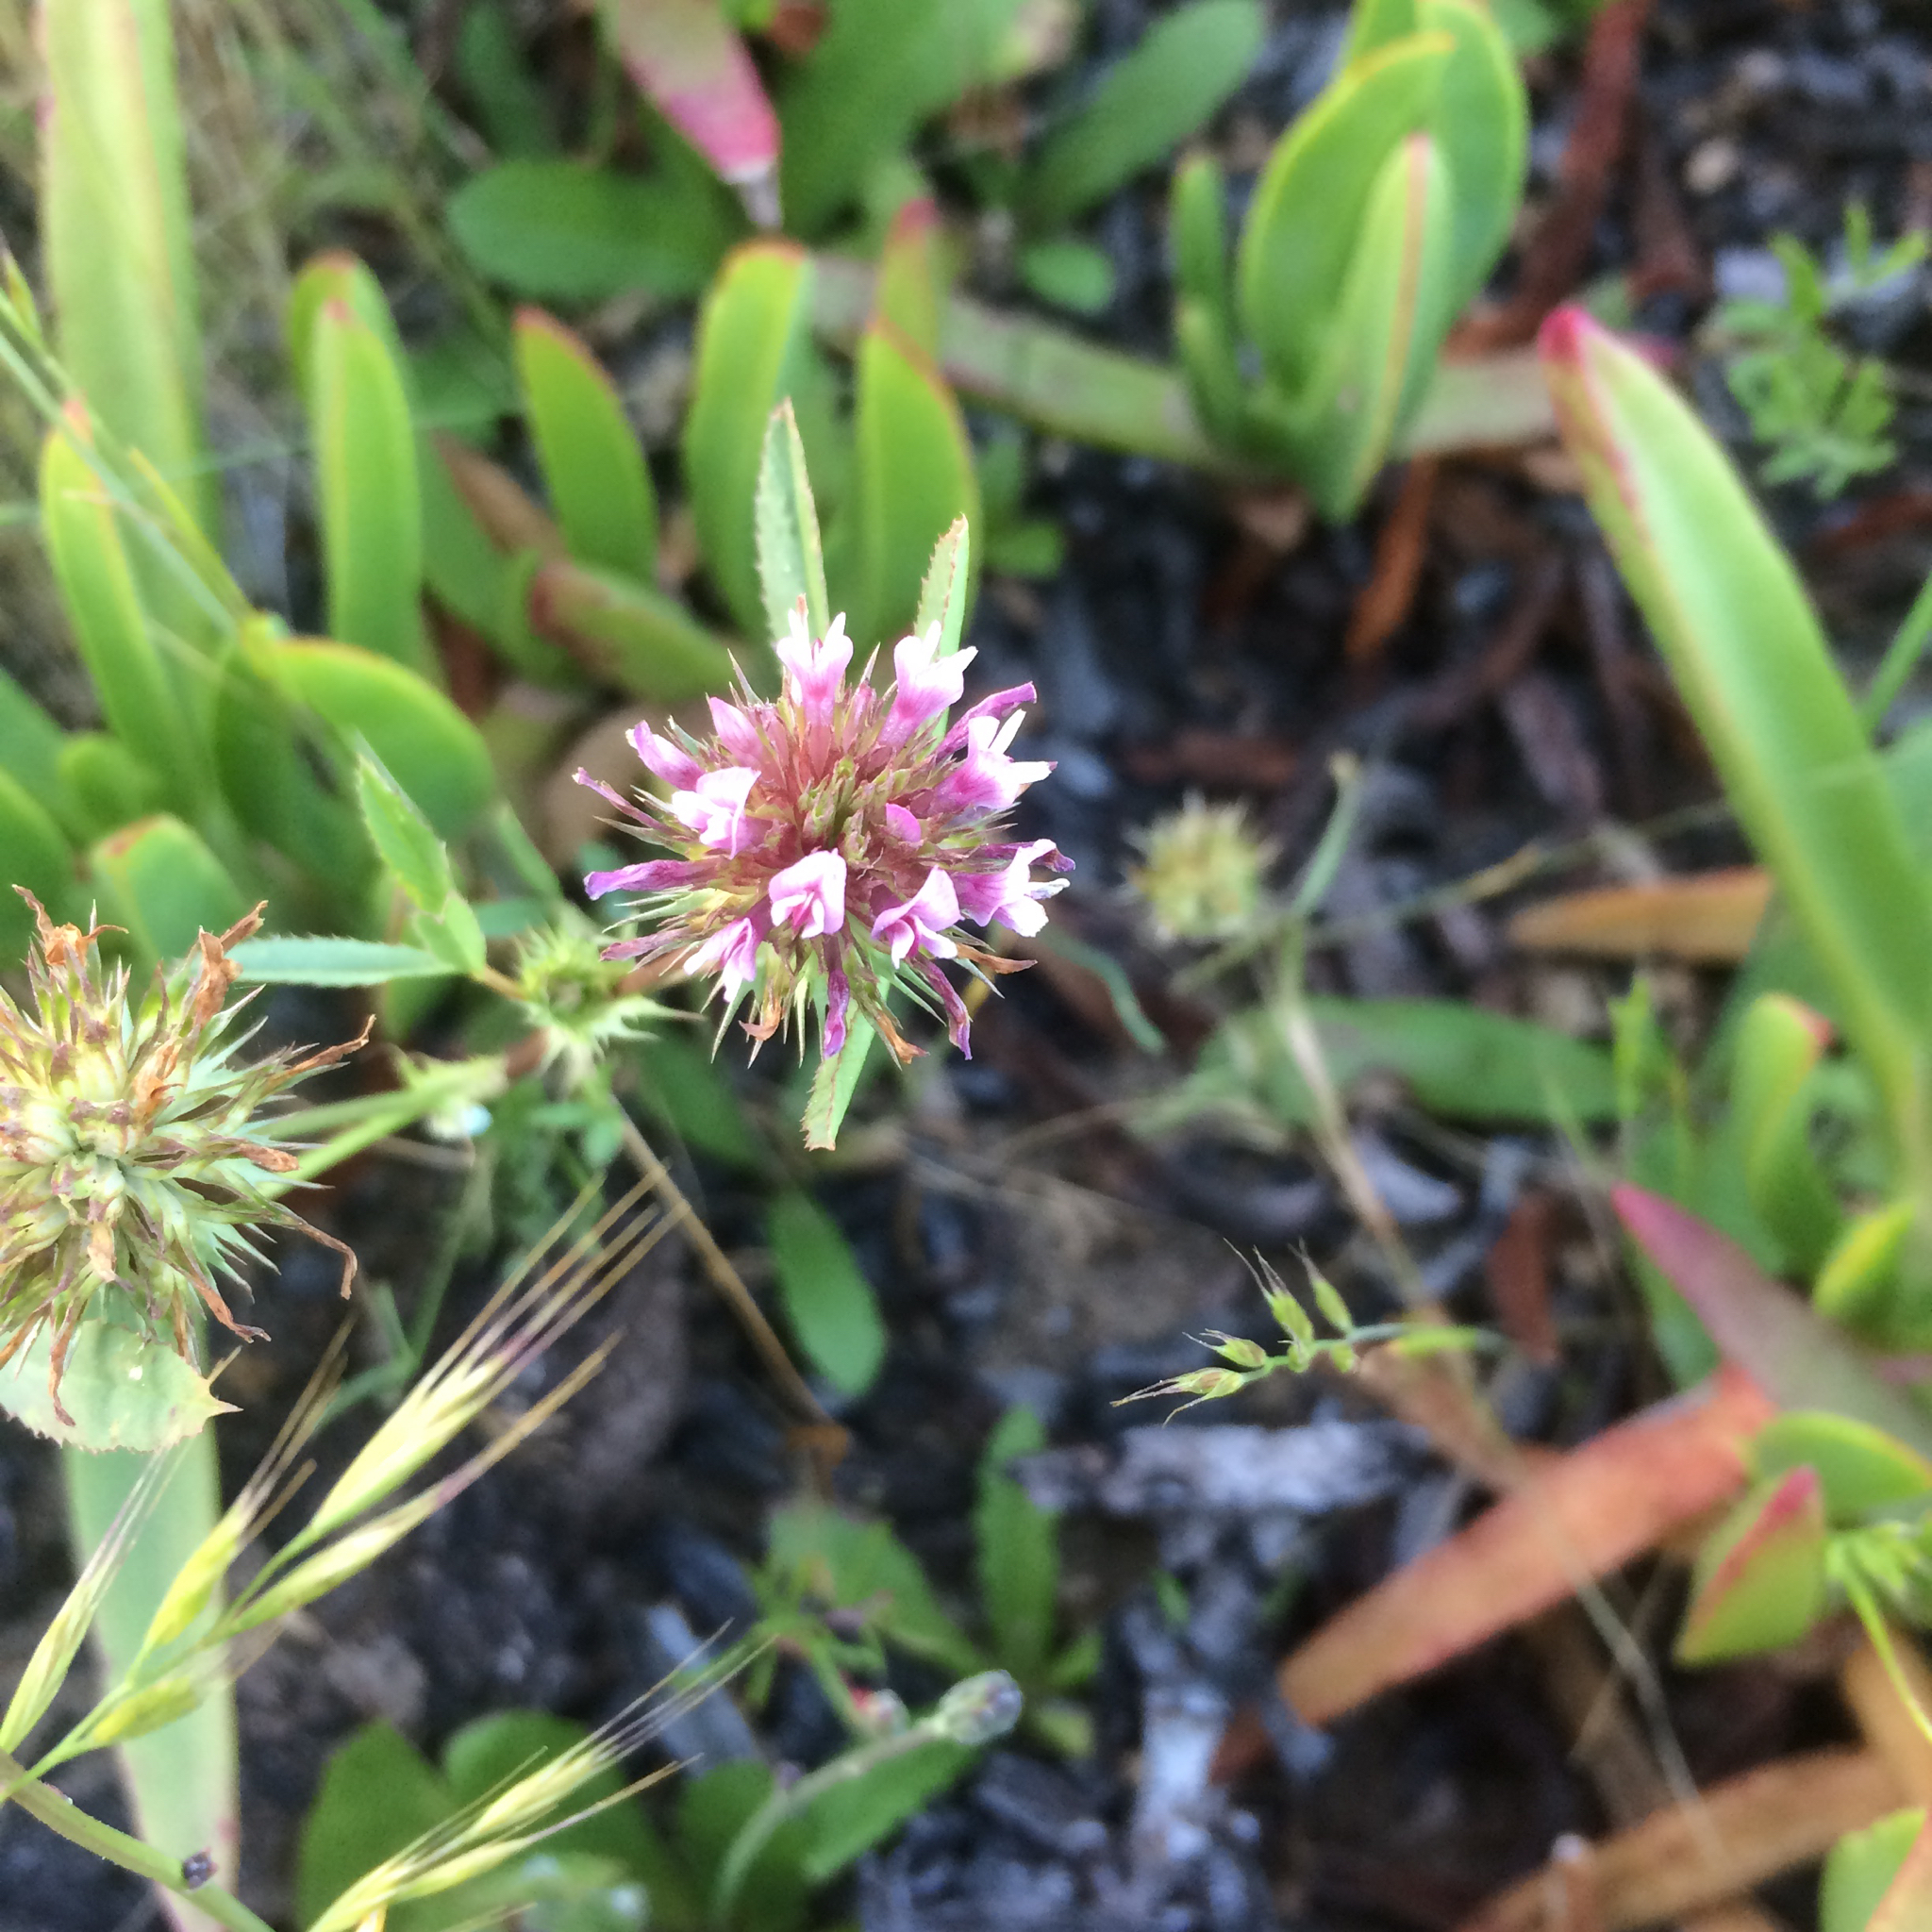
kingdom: Plantae
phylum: Tracheophyta
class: Magnoliopsida
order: Fabales
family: Fabaceae
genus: Trifolium
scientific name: Trifolium willdenovii
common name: Tomcat clover
